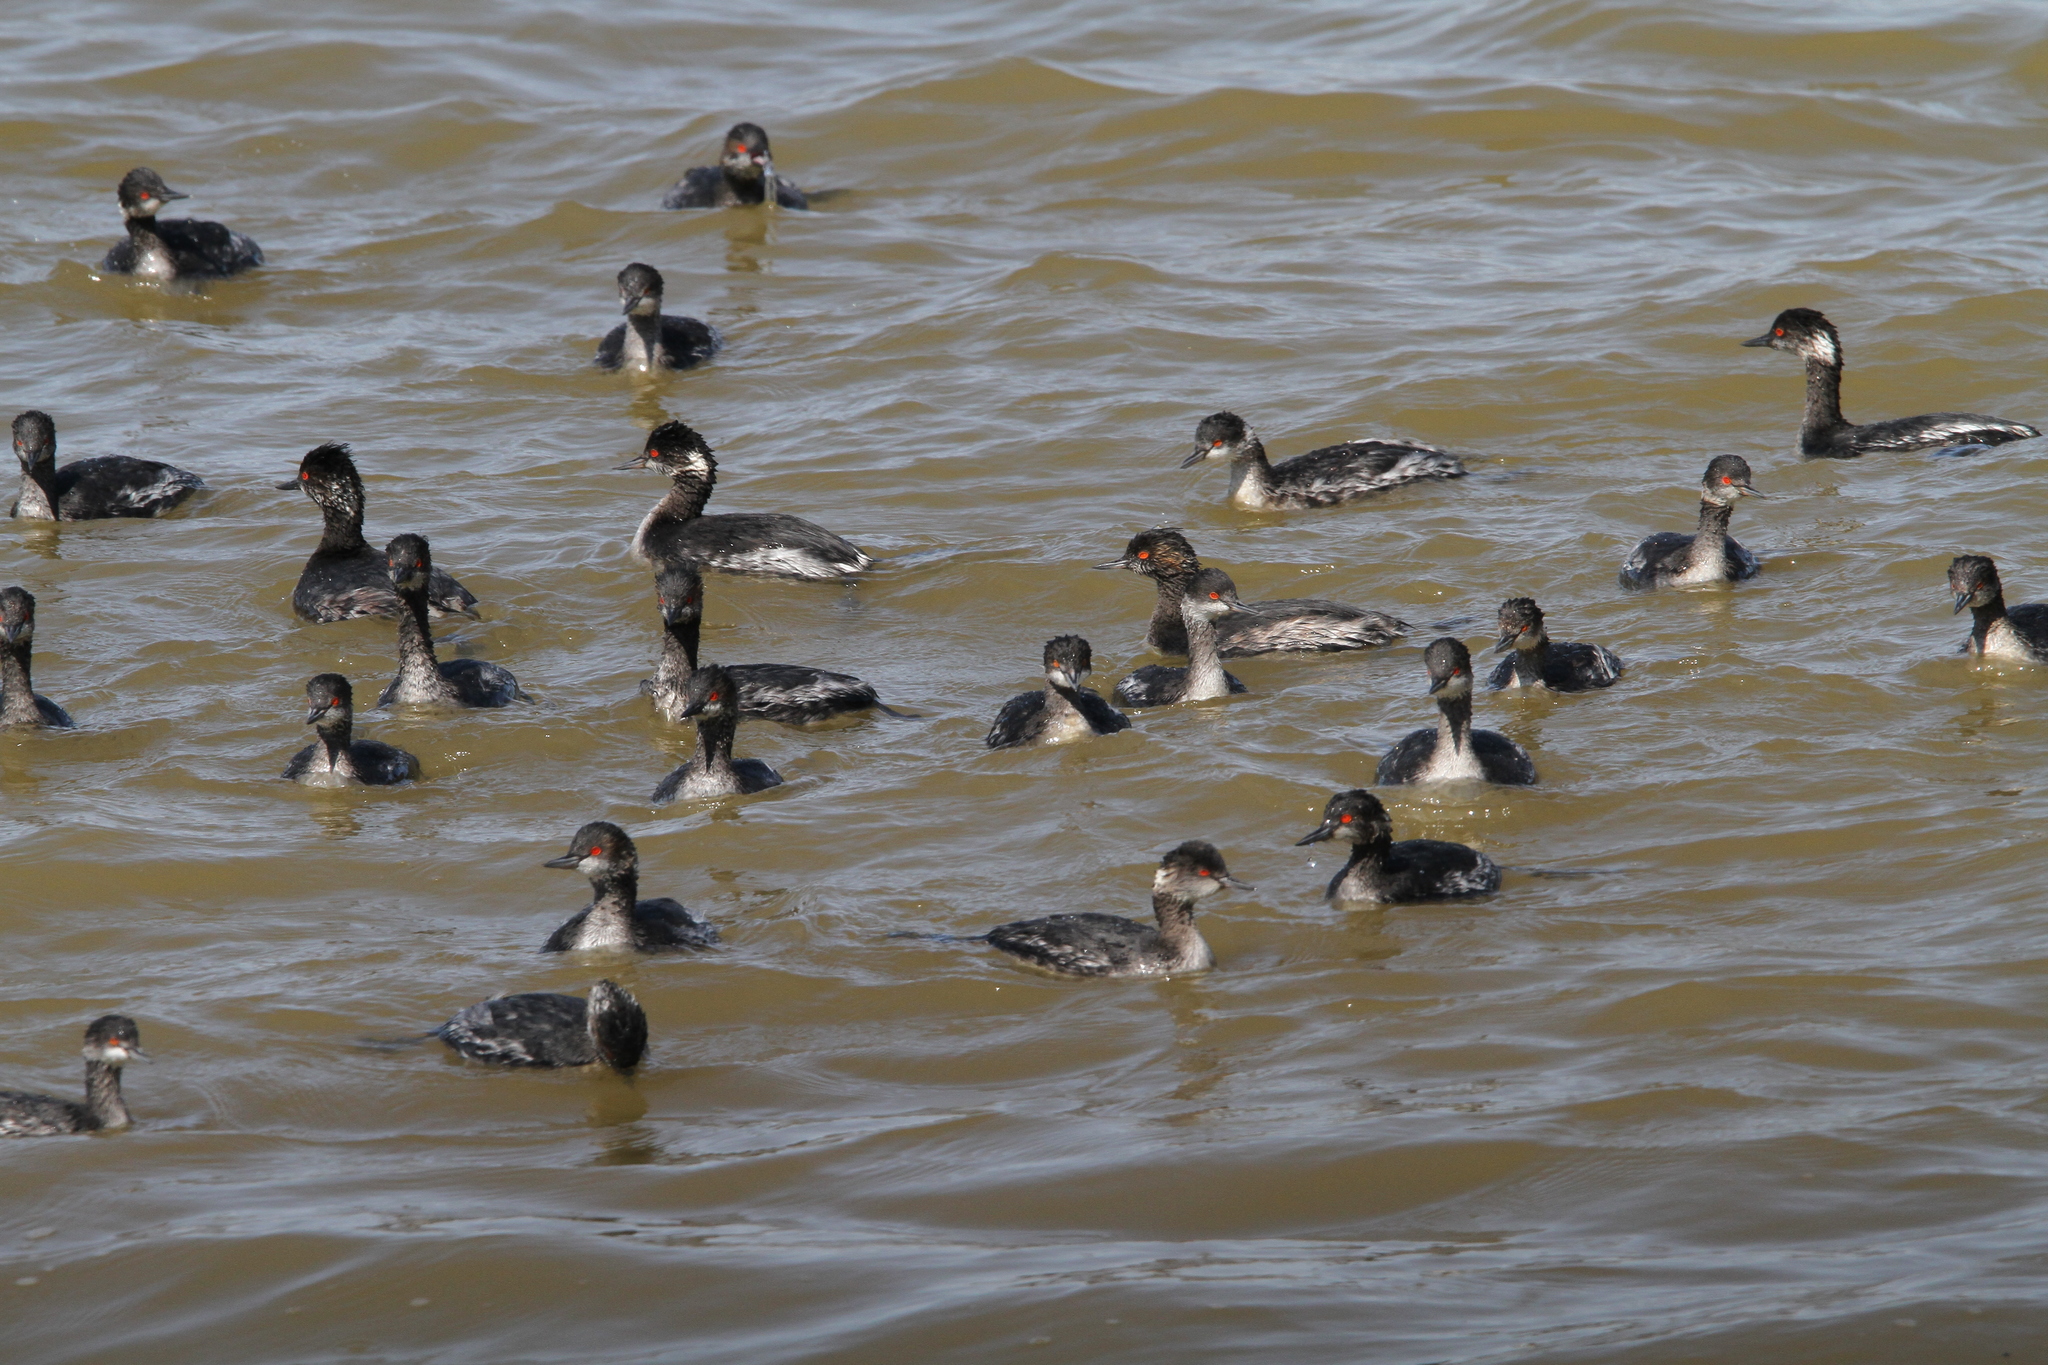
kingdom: Animalia
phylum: Chordata
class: Aves
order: Podicipediformes
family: Podicipedidae
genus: Podiceps
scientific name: Podiceps nigricollis
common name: Black-necked grebe
